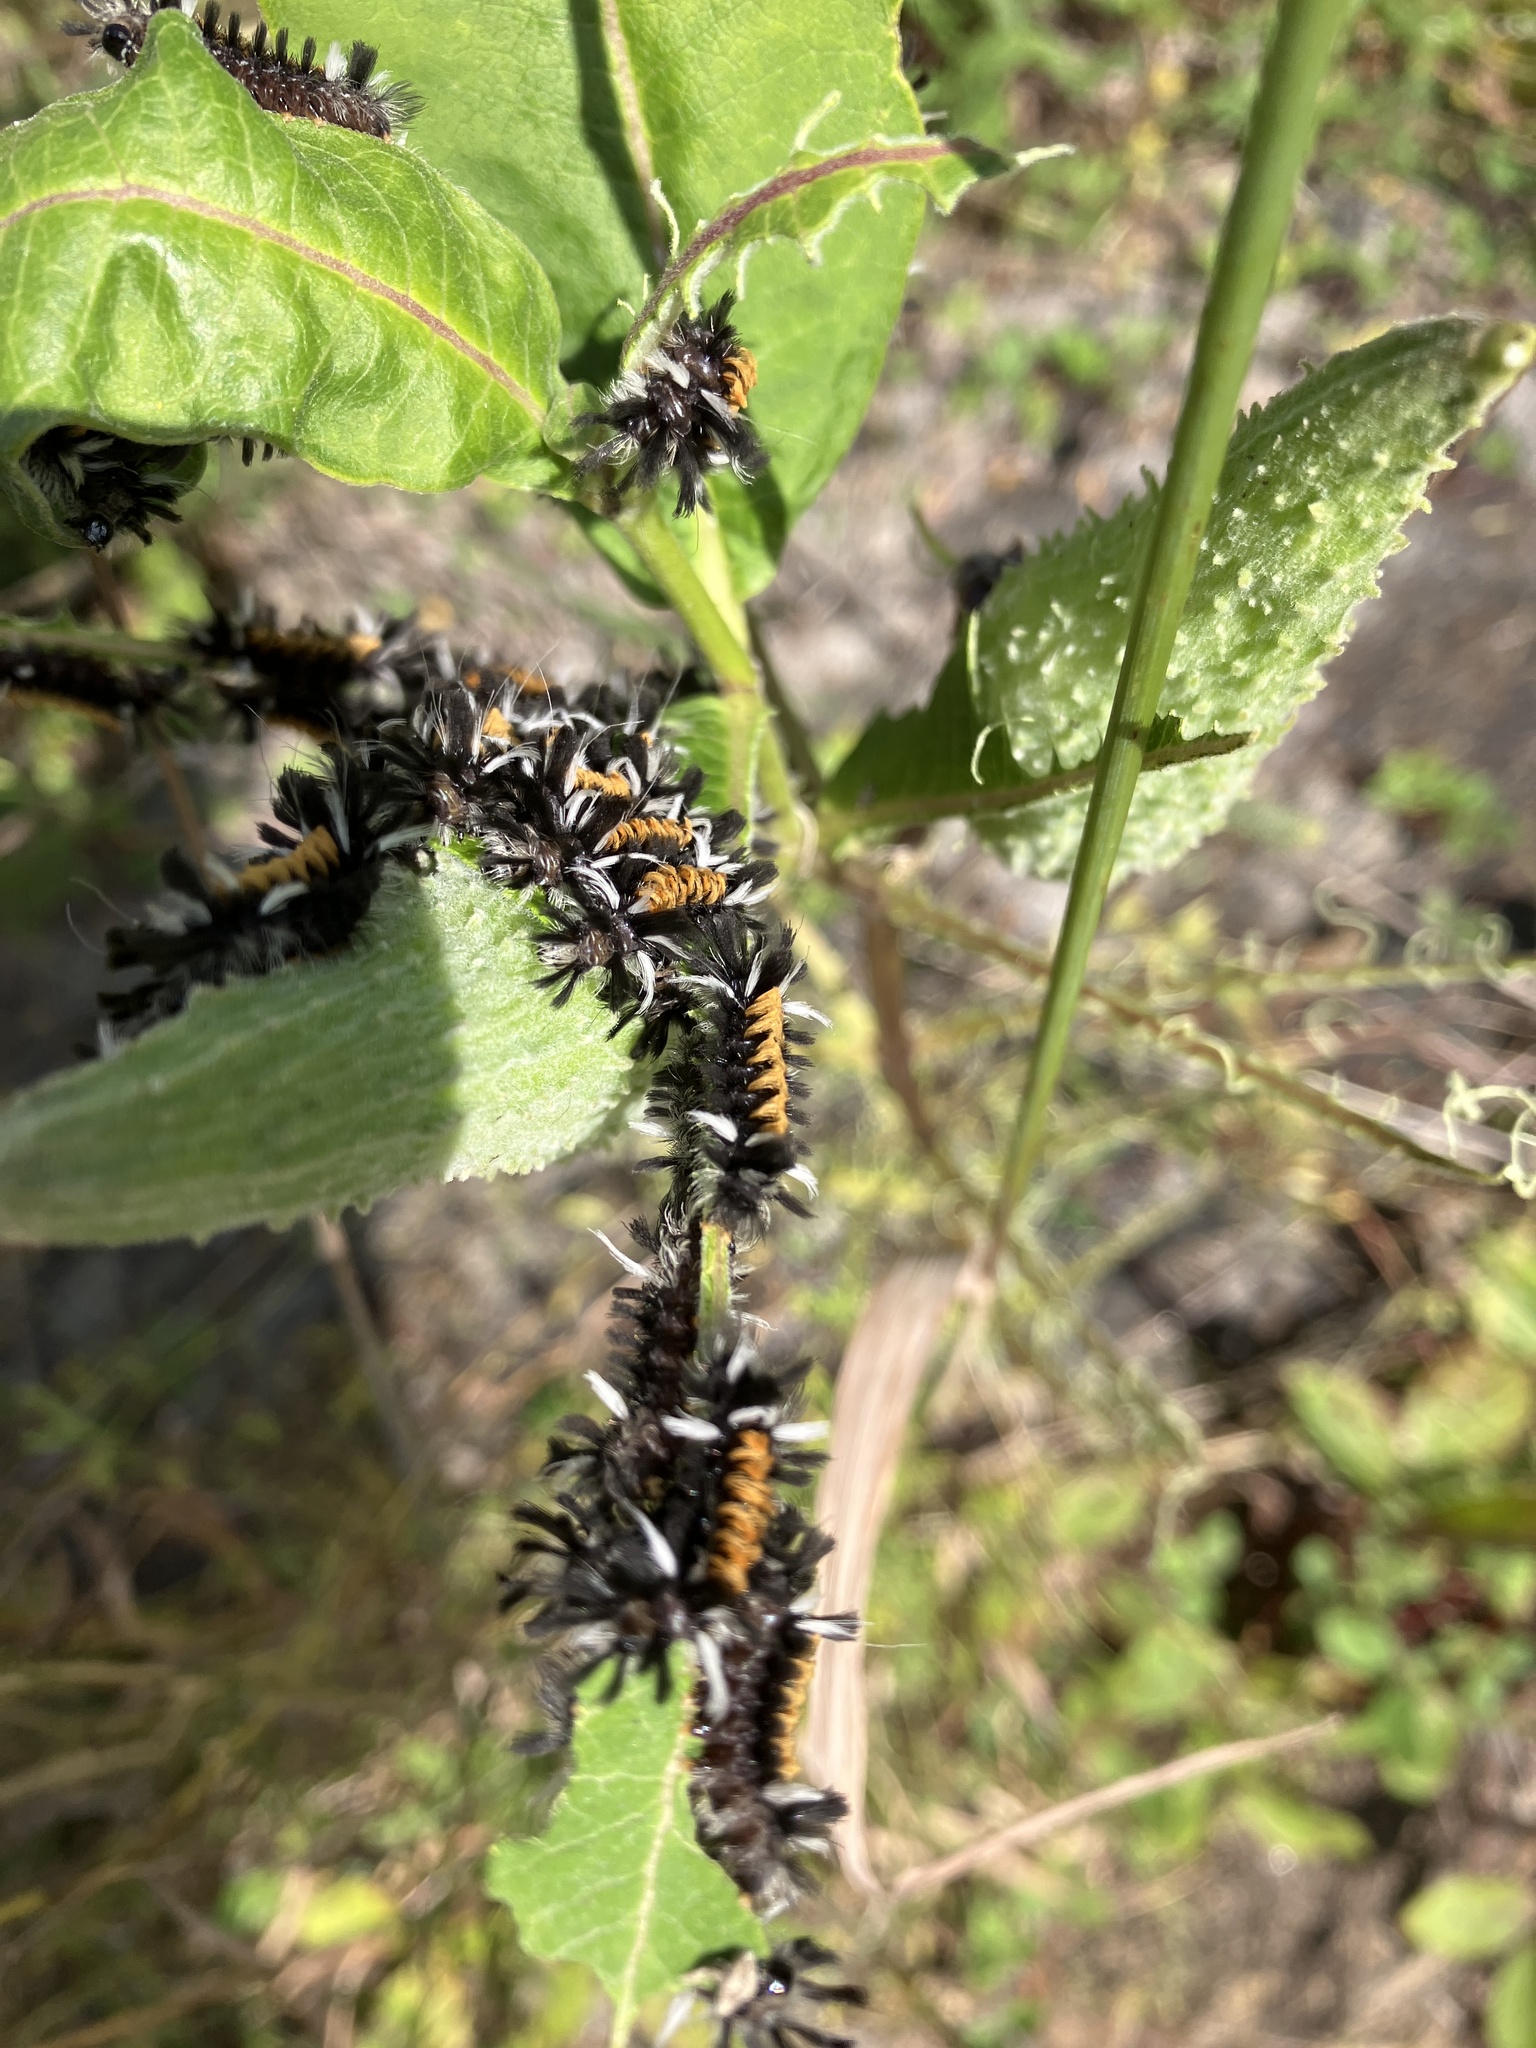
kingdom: Animalia
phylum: Arthropoda
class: Insecta
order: Lepidoptera
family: Erebidae
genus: Euchaetes
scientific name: Euchaetes egle
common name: Milkweed tussock moth
